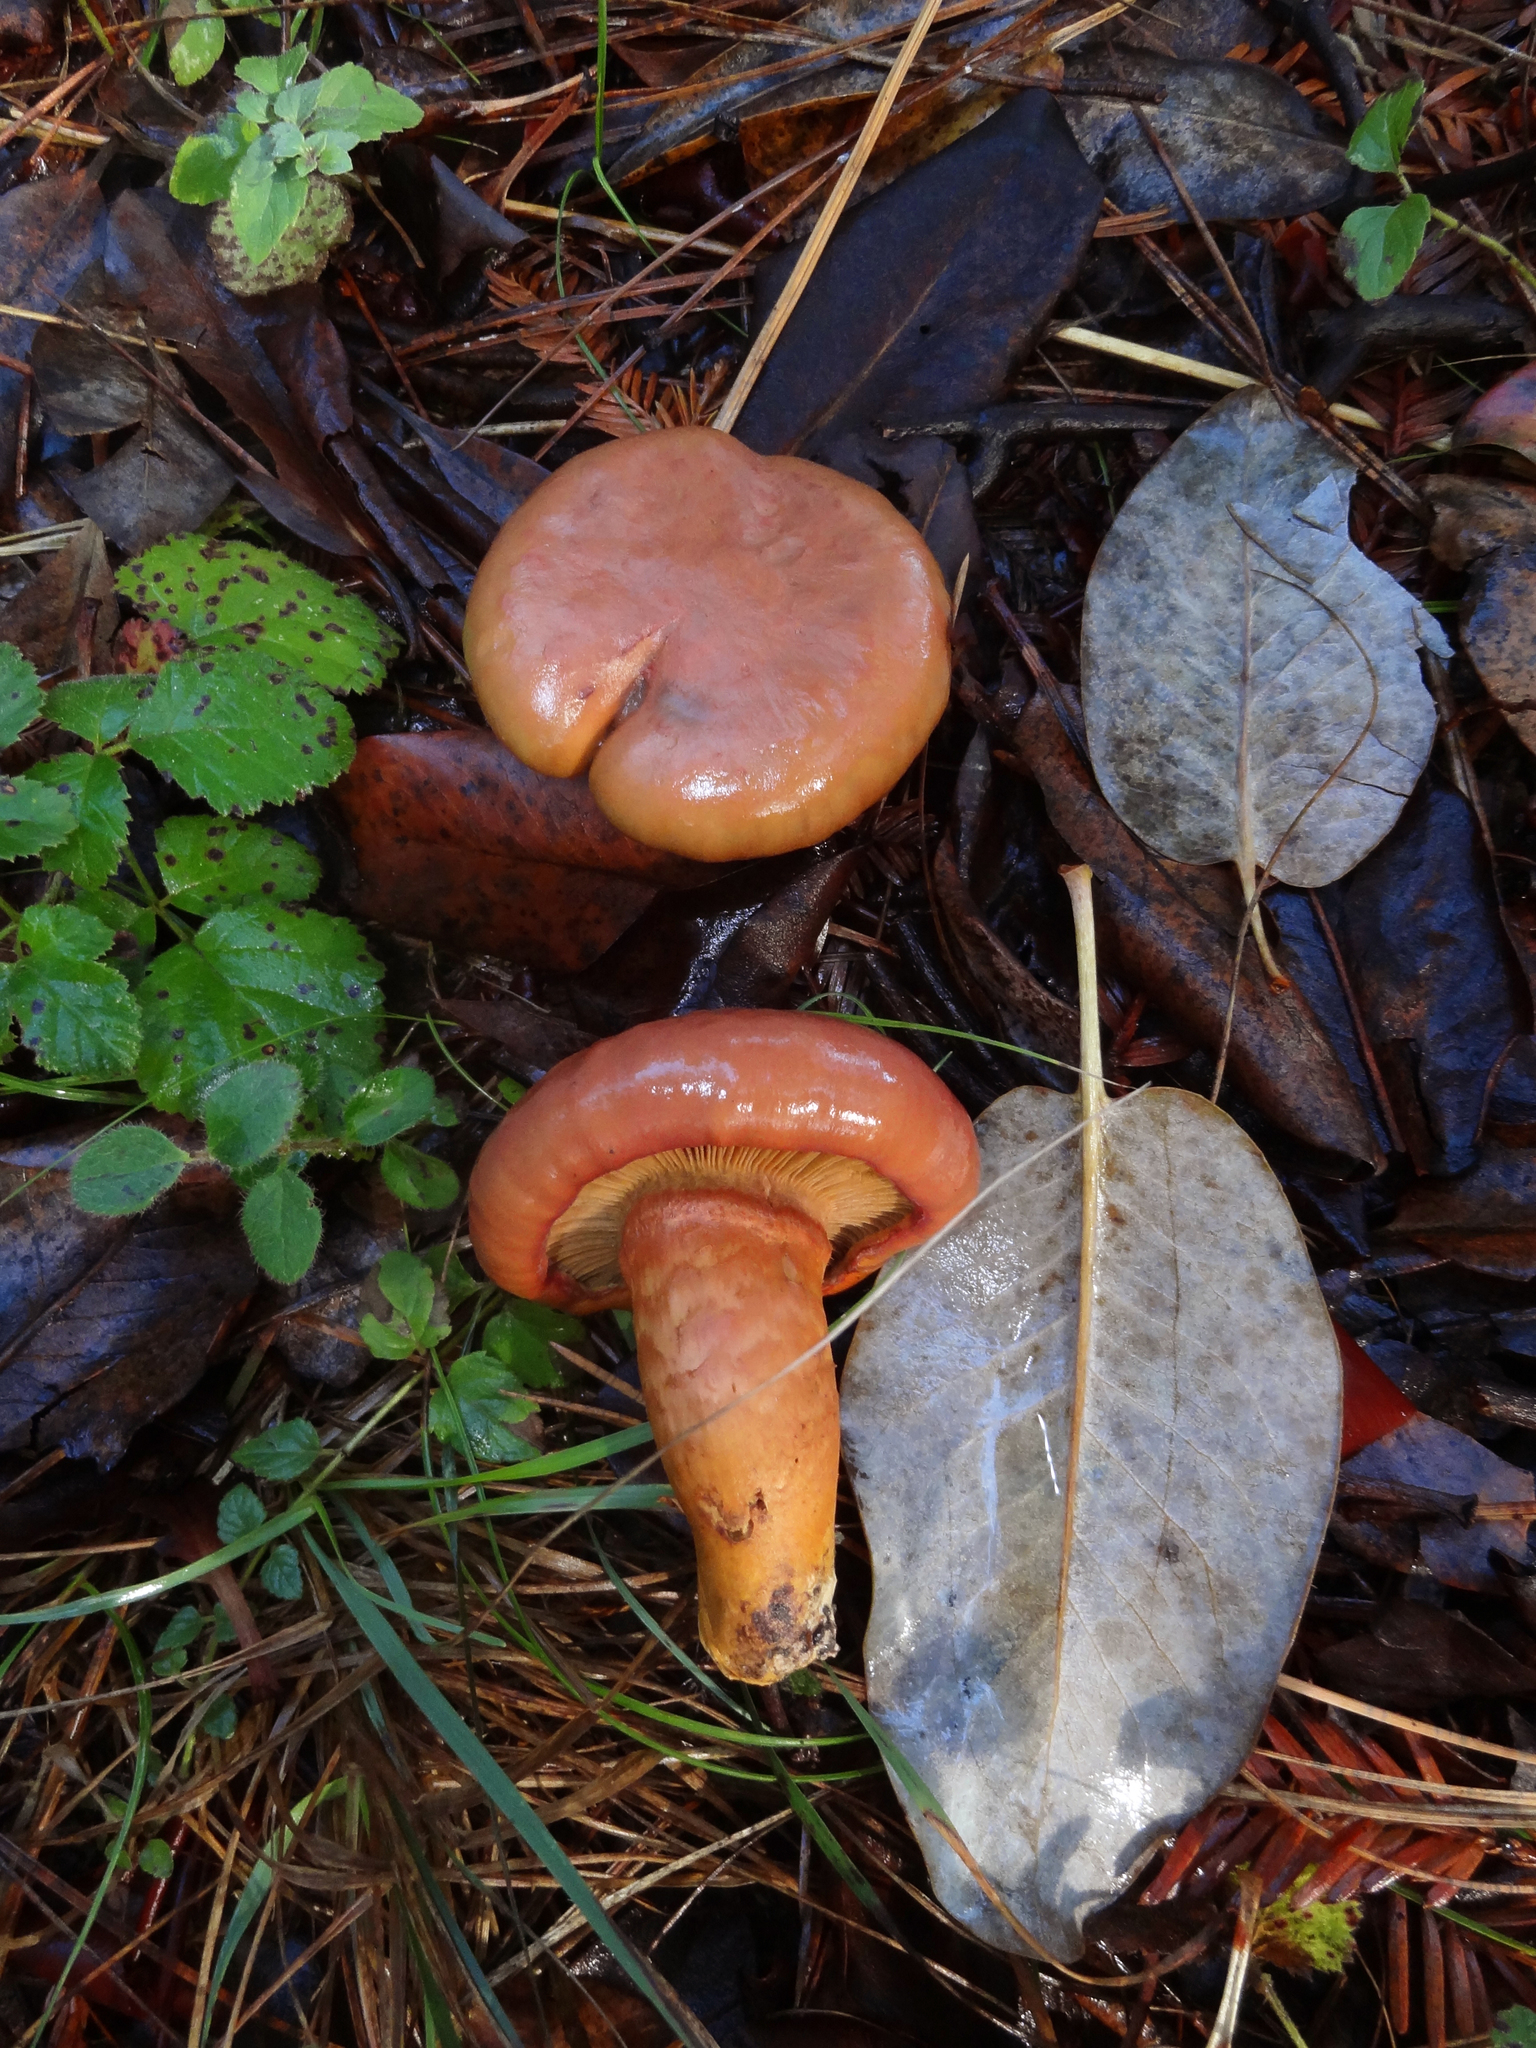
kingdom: Fungi
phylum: Basidiomycota
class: Agaricomycetes
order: Boletales
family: Gomphidiaceae
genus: Chroogomphus
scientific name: Chroogomphus pseudovinicolor
